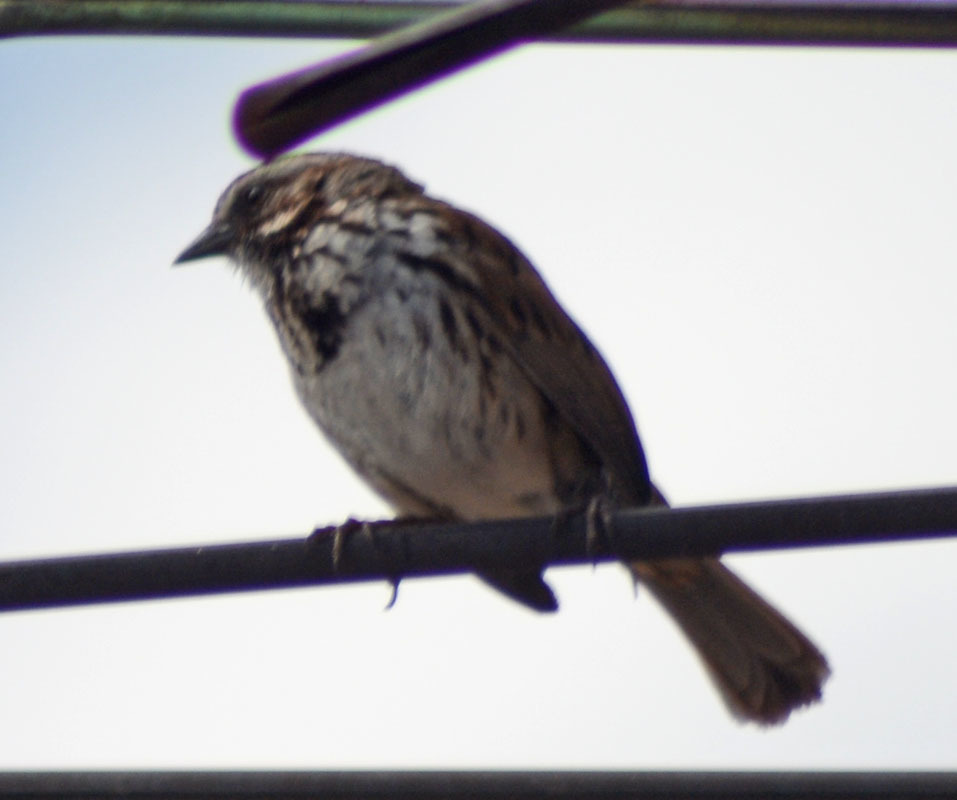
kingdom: Animalia
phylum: Chordata
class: Aves
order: Passeriformes
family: Passerellidae
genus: Melospiza
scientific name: Melospiza melodia
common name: Song sparrow
